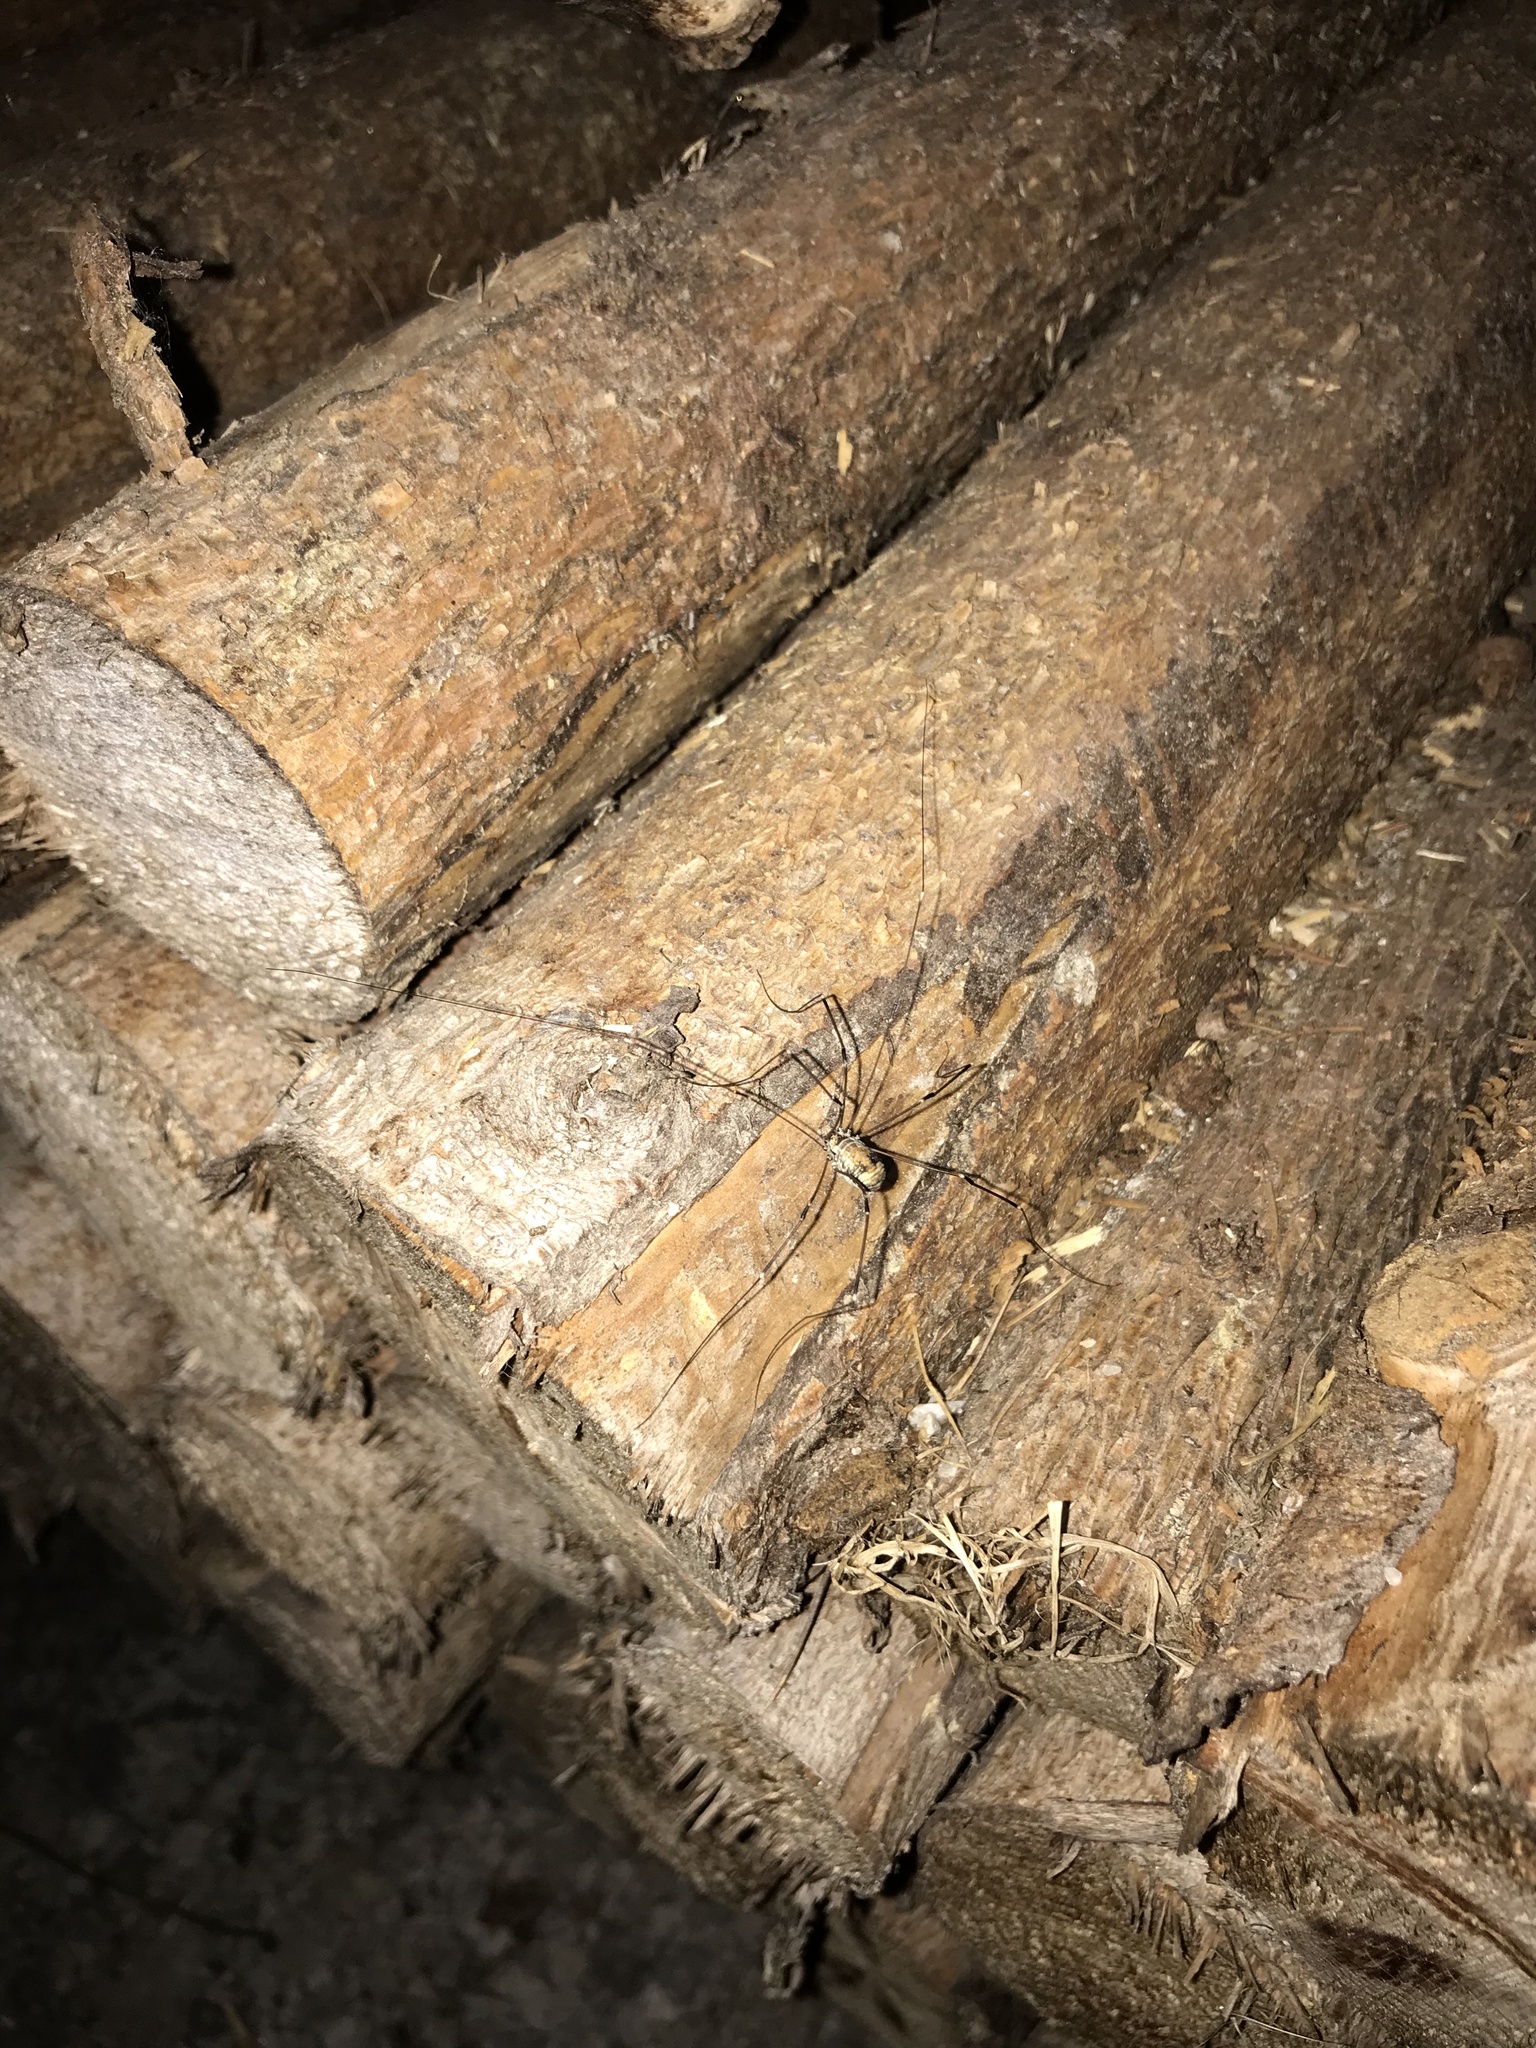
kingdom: Animalia
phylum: Arthropoda
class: Arachnida
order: Opiliones
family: Sclerosomatidae
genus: Leiobunum
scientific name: Leiobunum limbatum
